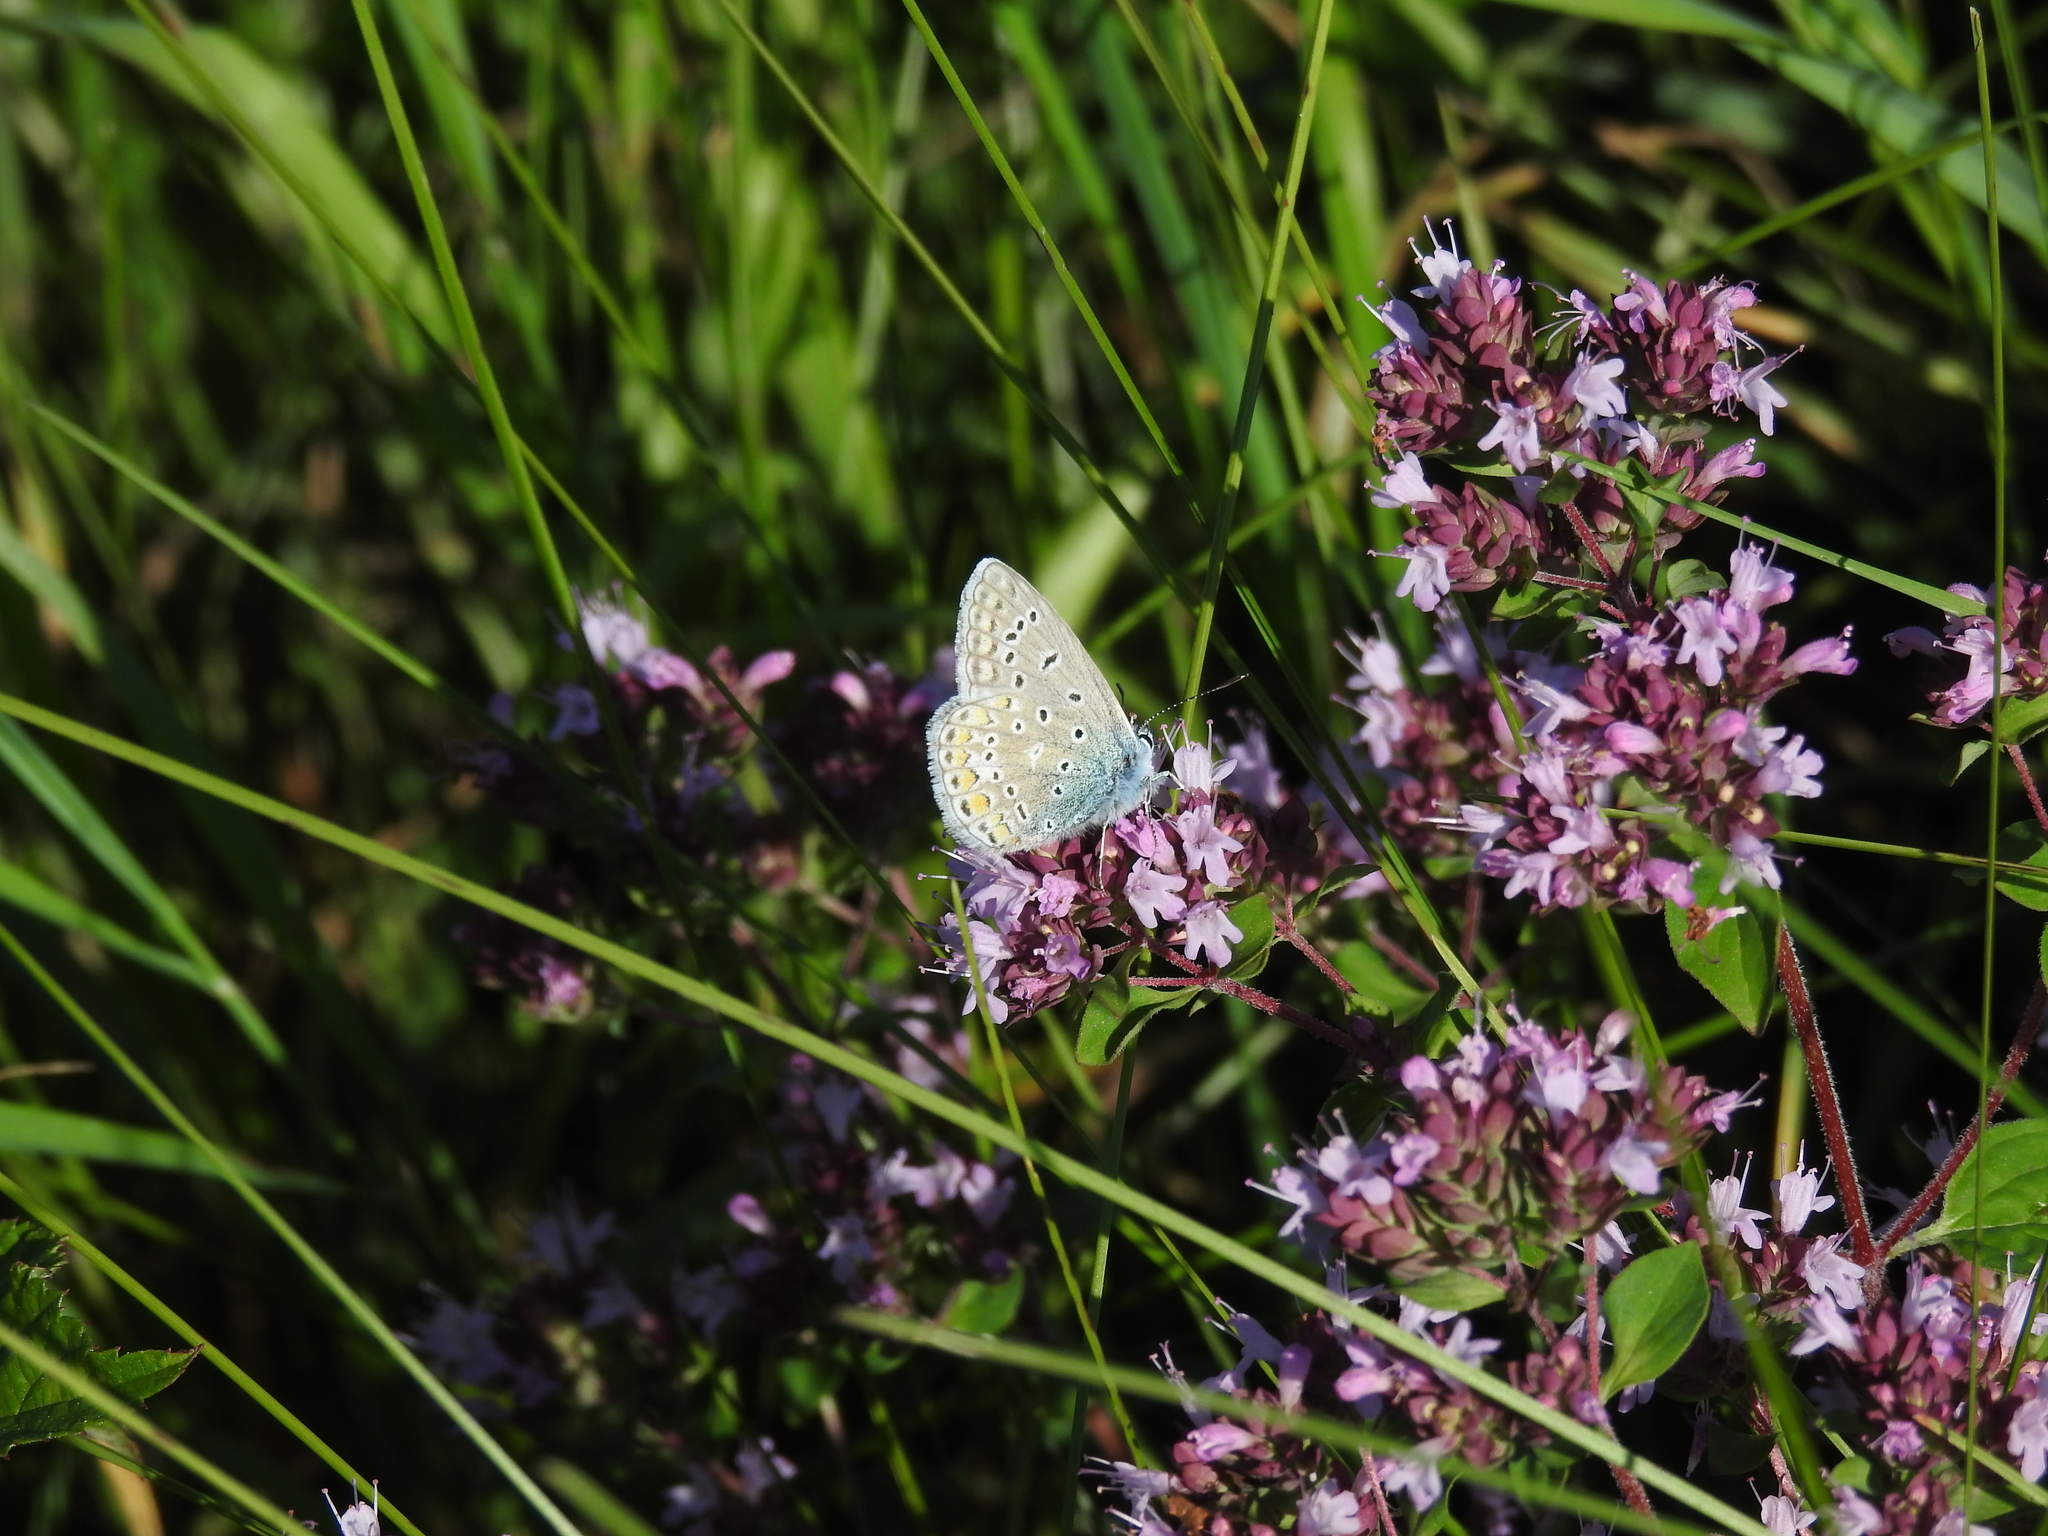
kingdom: Animalia
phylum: Arthropoda
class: Insecta
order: Lepidoptera
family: Lycaenidae
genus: Polyommatus
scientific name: Polyommatus icarus
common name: Common blue
